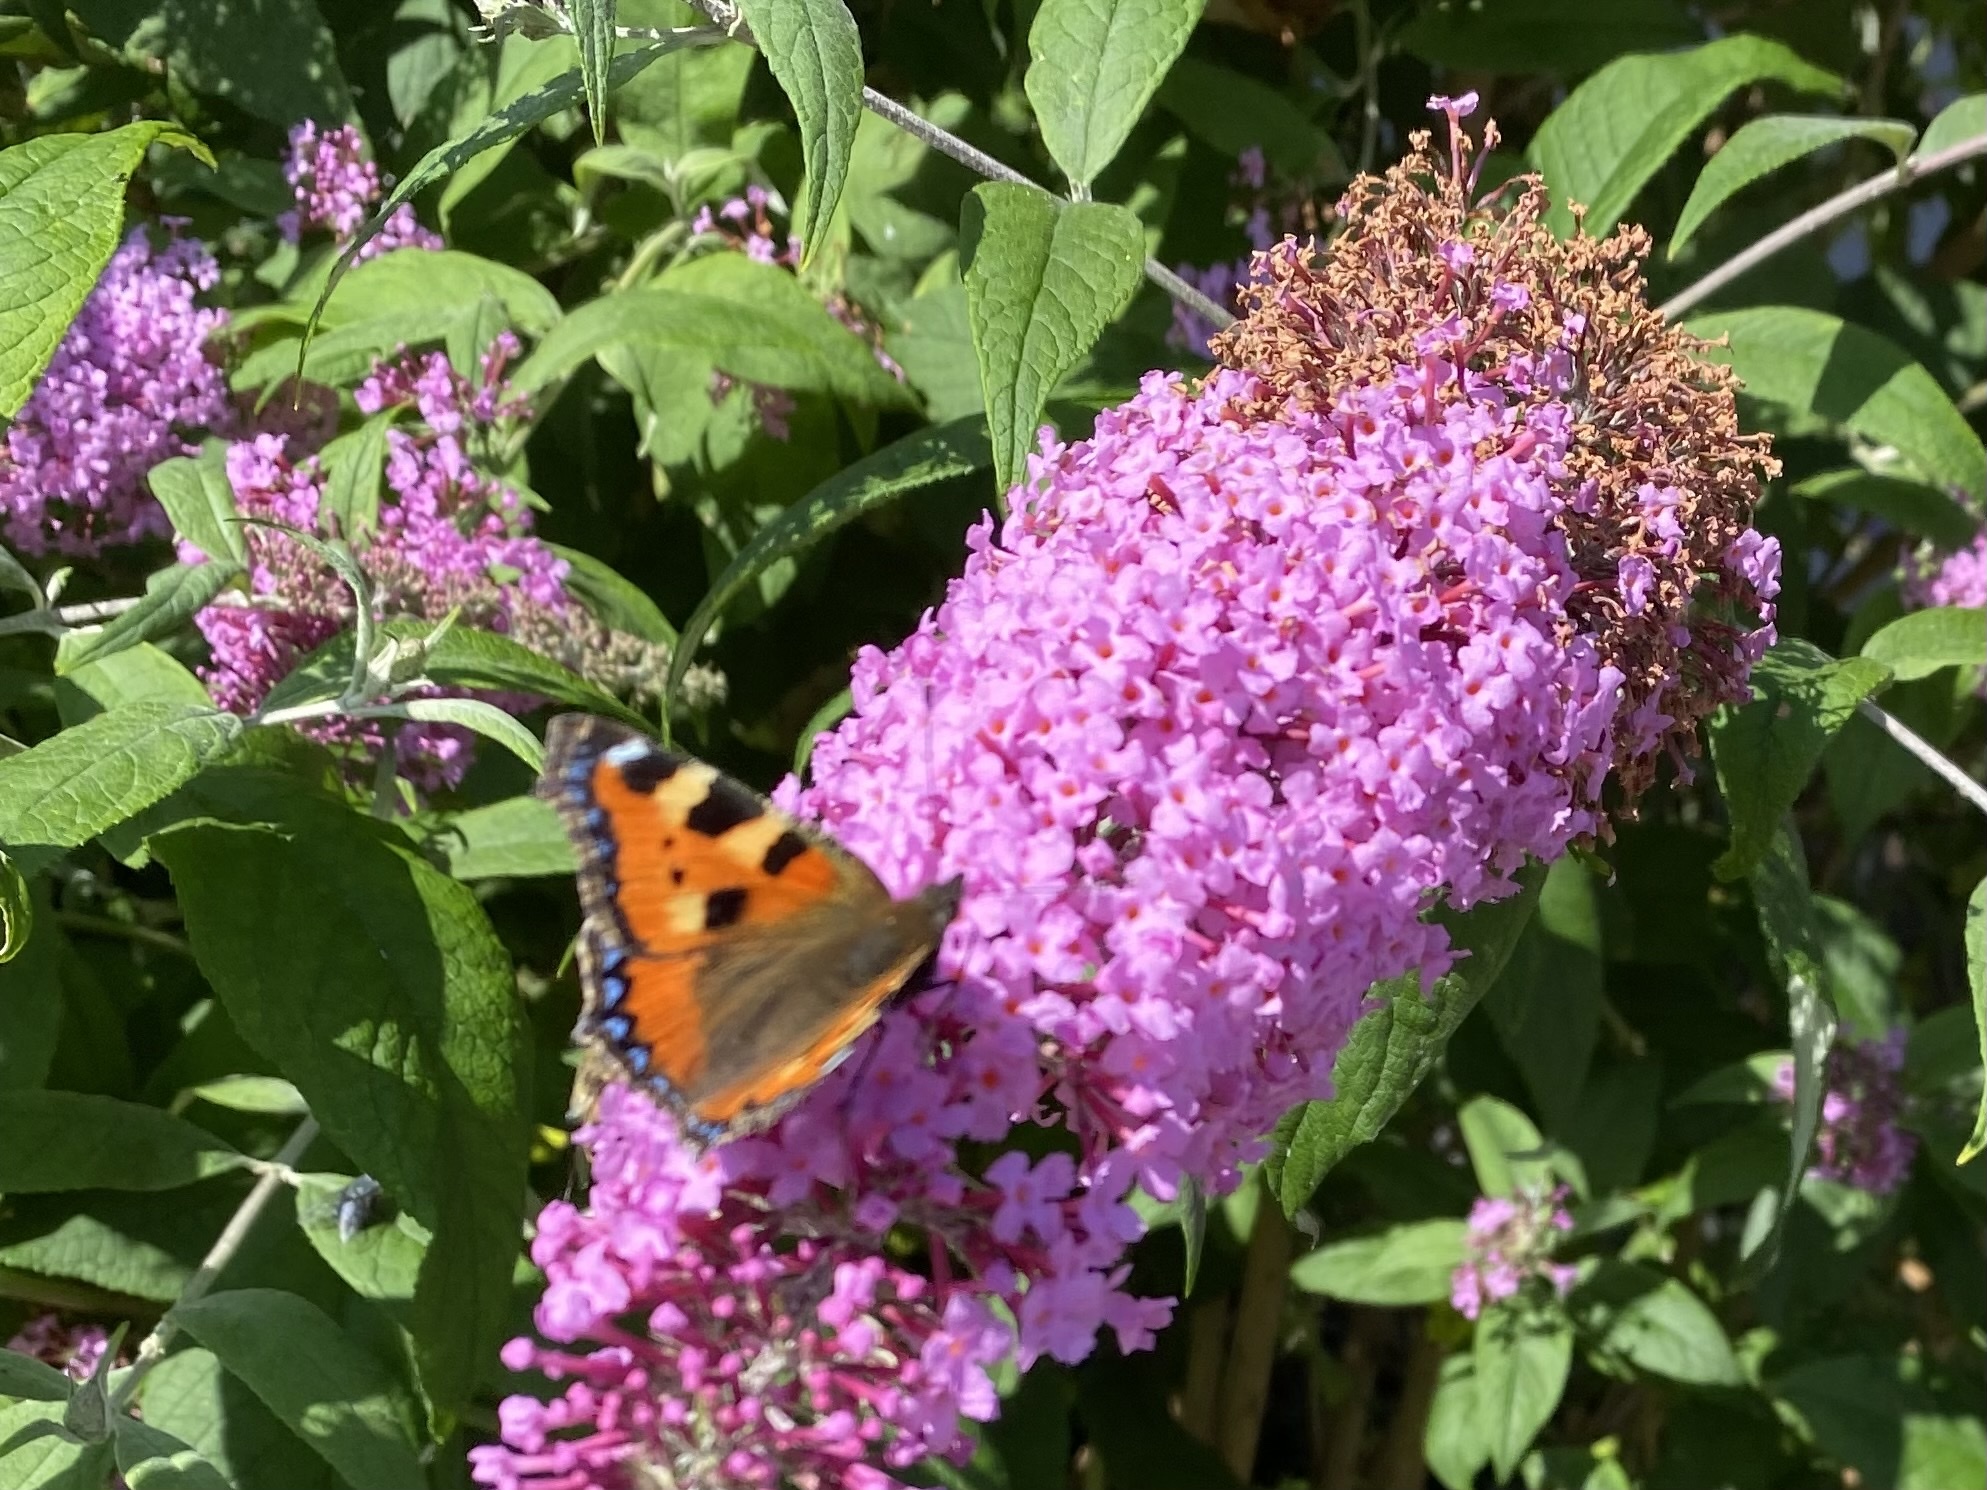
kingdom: Animalia
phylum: Arthropoda
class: Insecta
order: Lepidoptera
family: Nymphalidae
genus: Aglais
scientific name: Aglais urticae
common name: Small tortoiseshell
